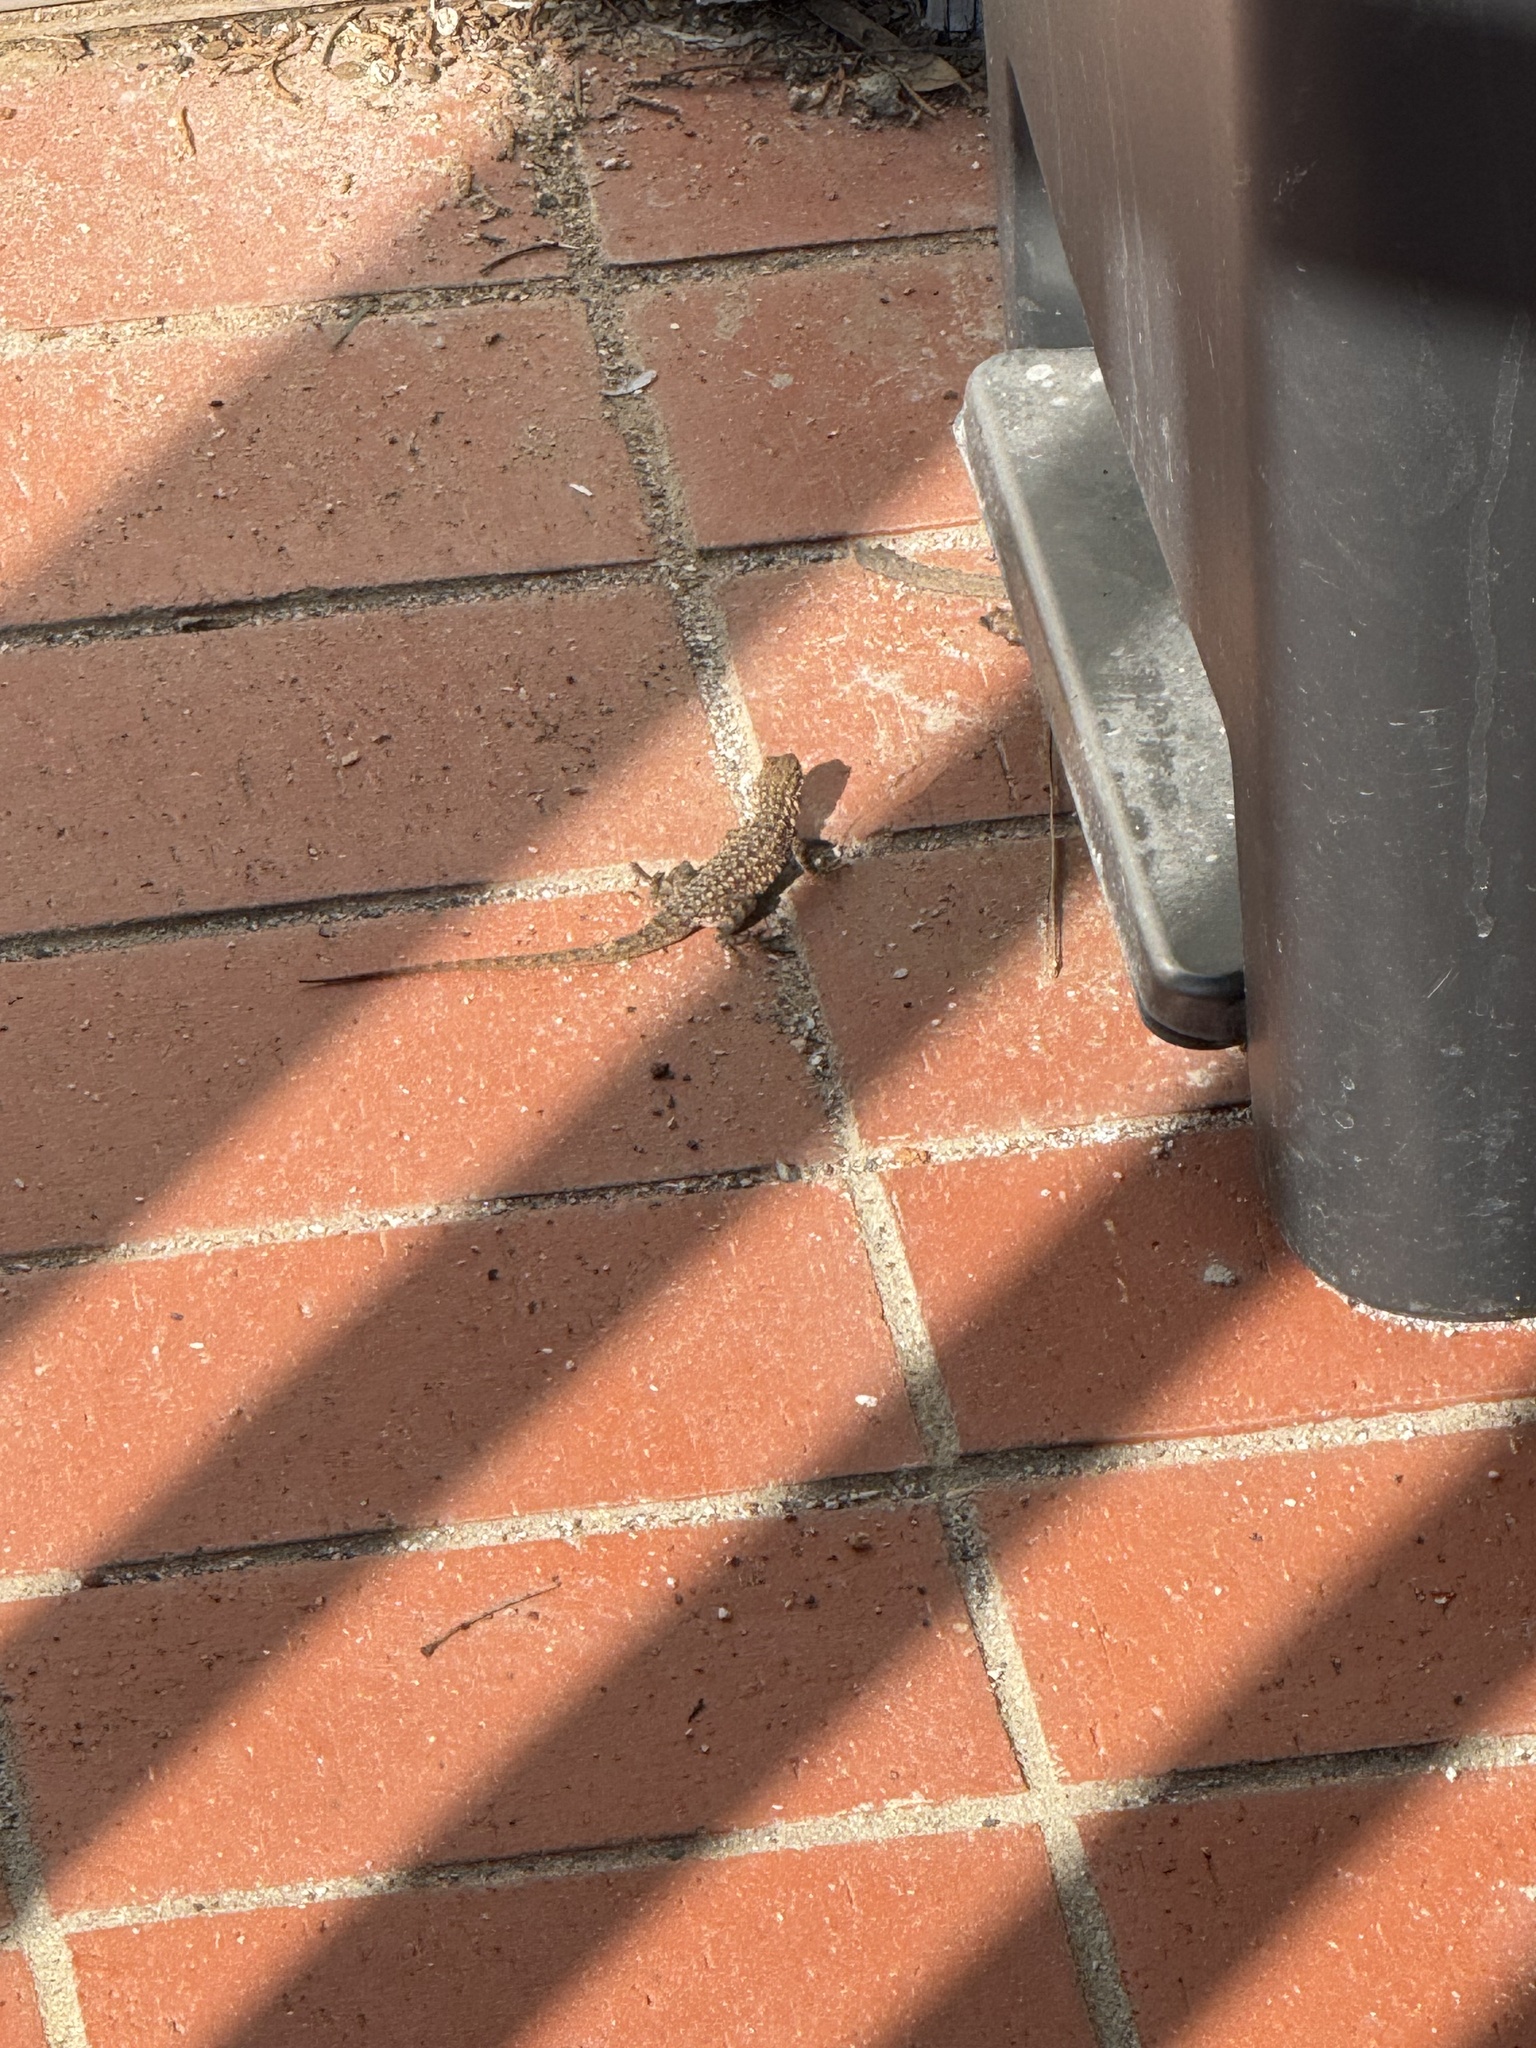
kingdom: Animalia
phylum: Chordata
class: Squamata
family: Phrynosomatidae
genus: Uta
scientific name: Uta stansburiana
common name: Side-blotched lizard
